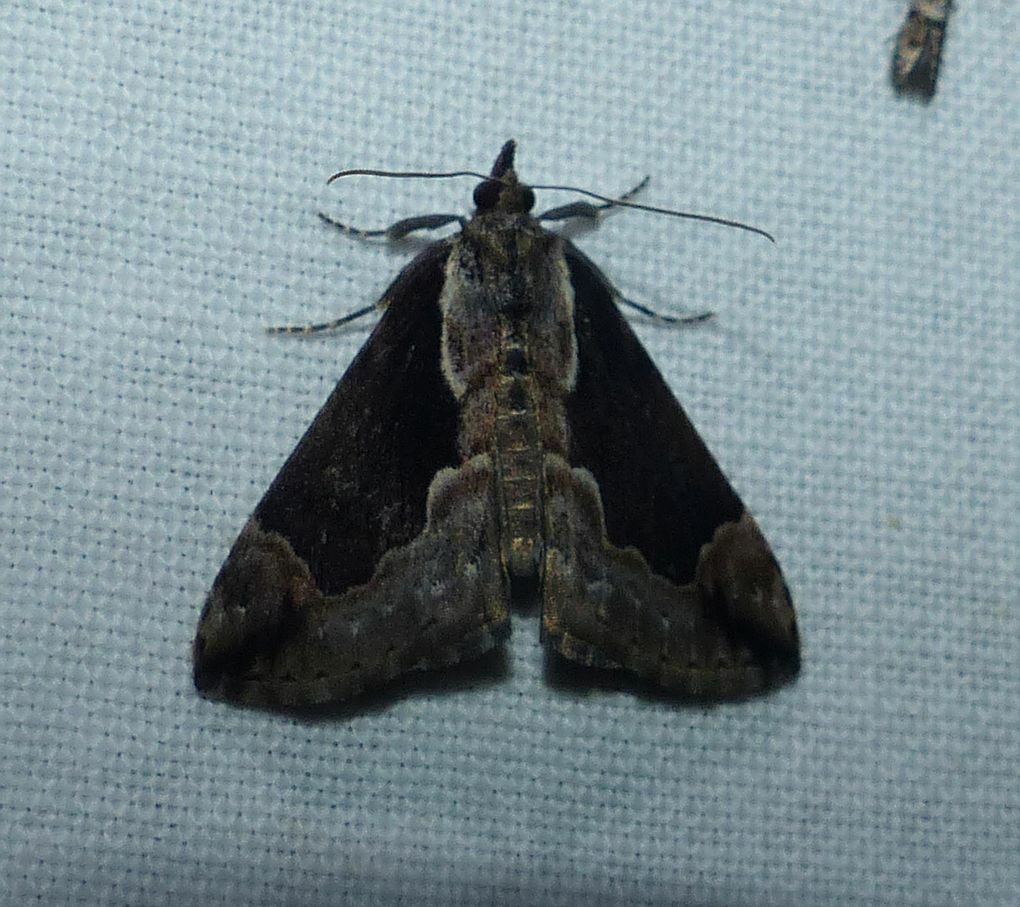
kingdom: Animalia
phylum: Arthropoda
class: Insecta
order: Lepidoptera
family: Erebidae
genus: Hypena
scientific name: Hypena baltimoralis
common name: Baltimore snout
